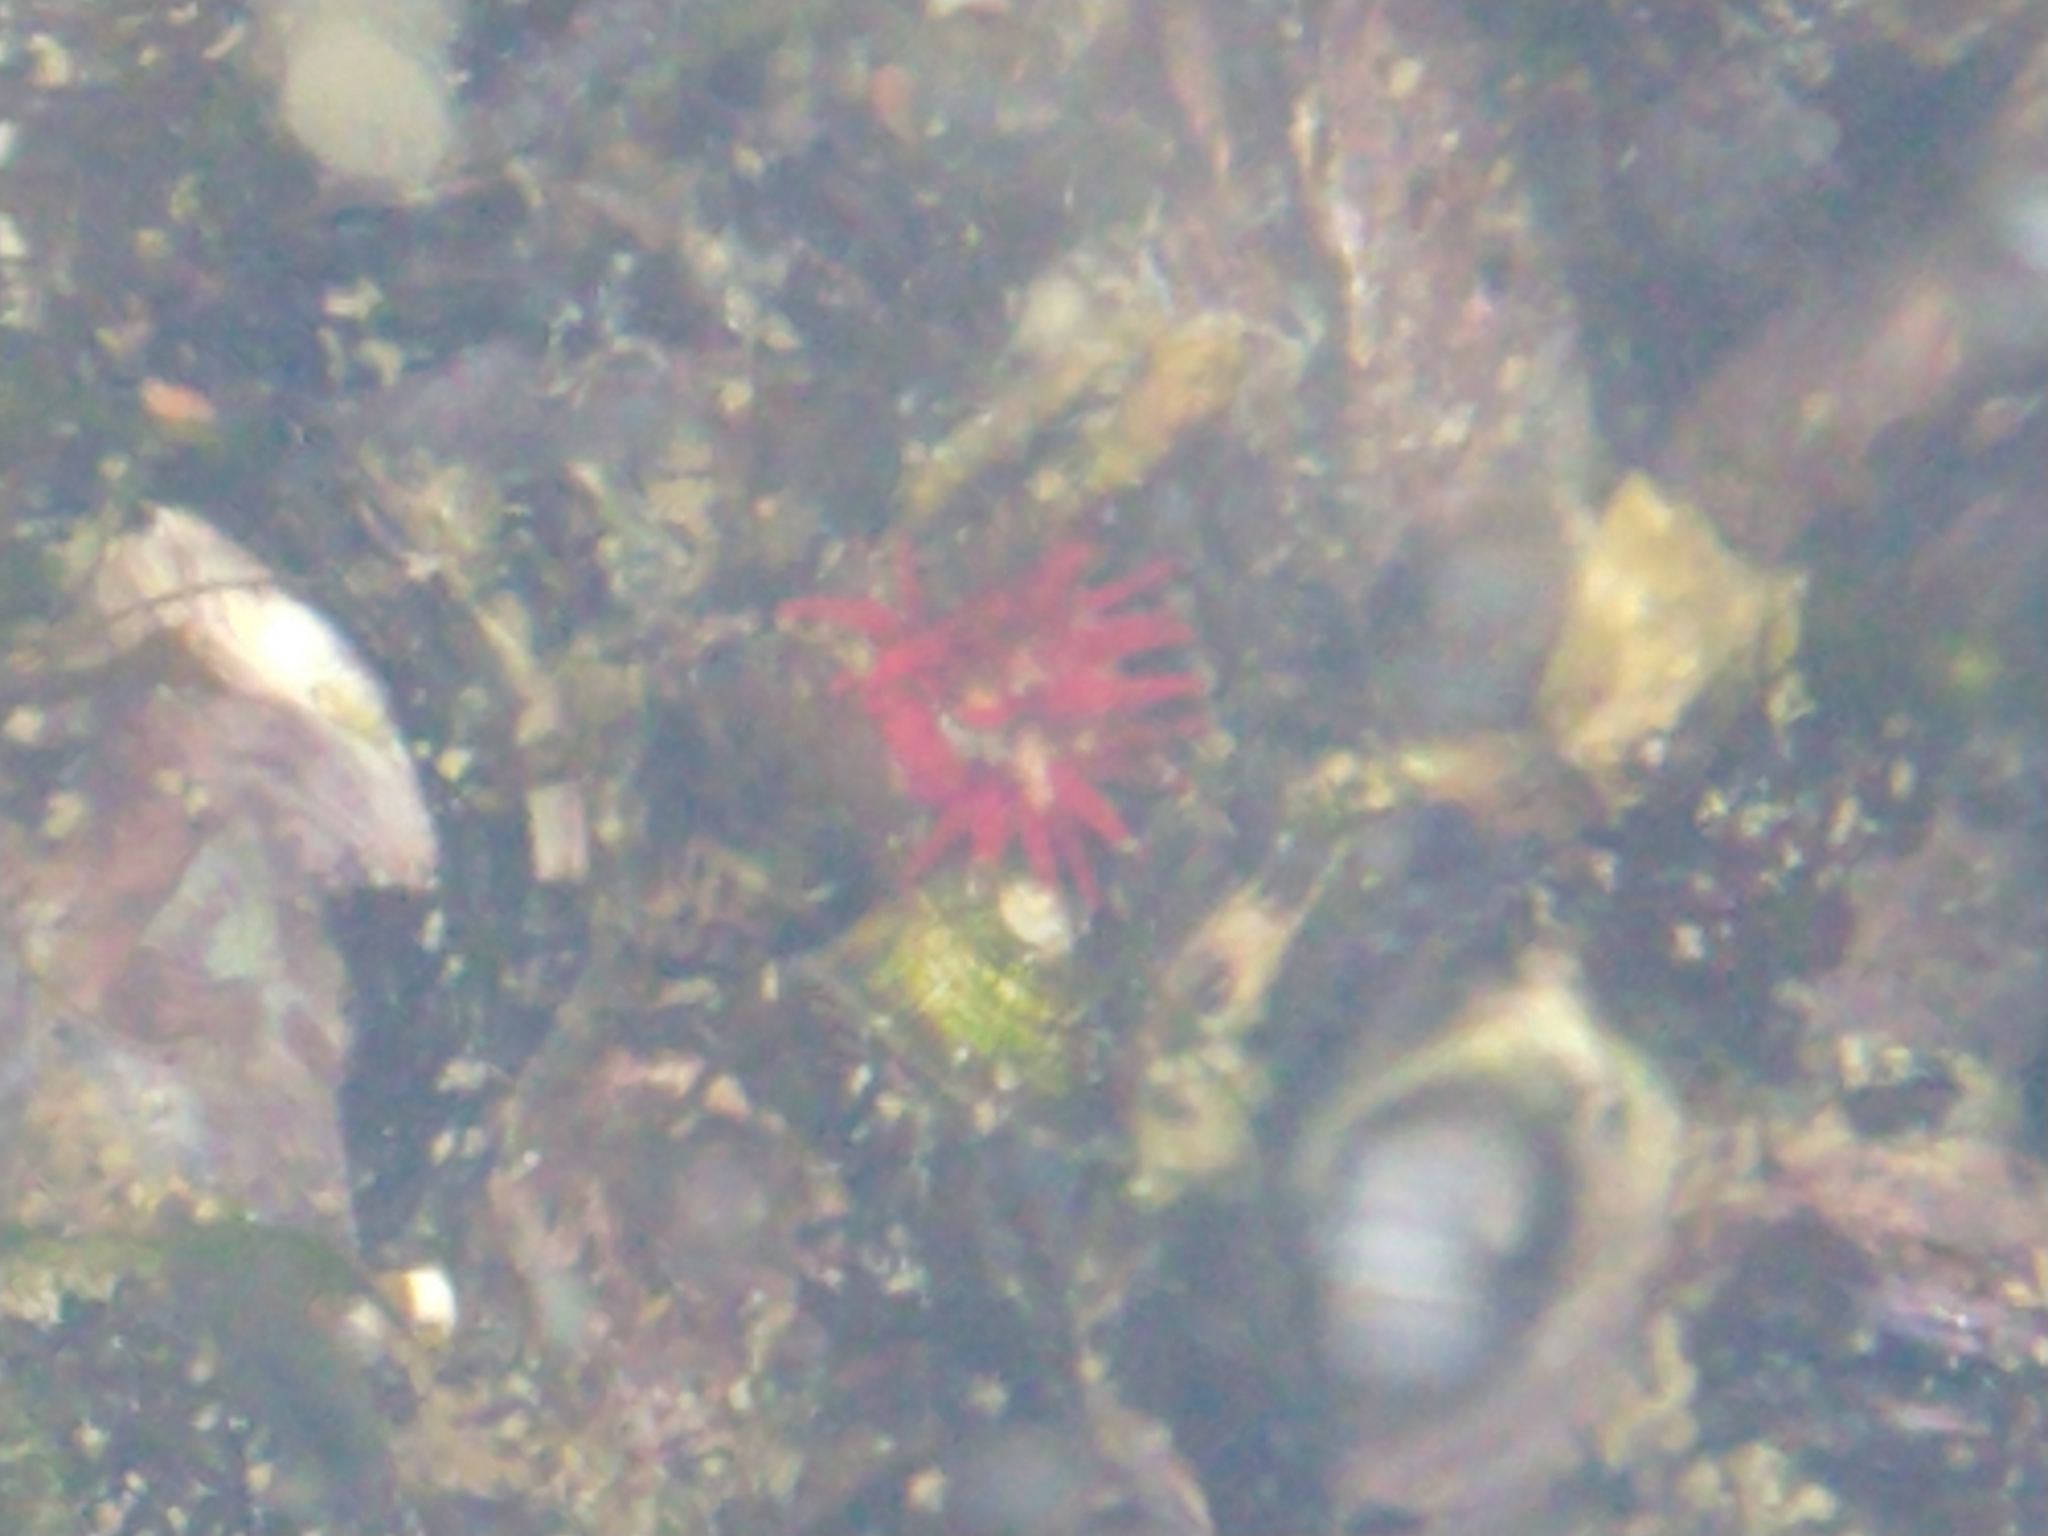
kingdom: Animalia
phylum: Cnidaria
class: Anthozoa
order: Actiniaria
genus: Paractis
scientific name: Paractis impatiens
